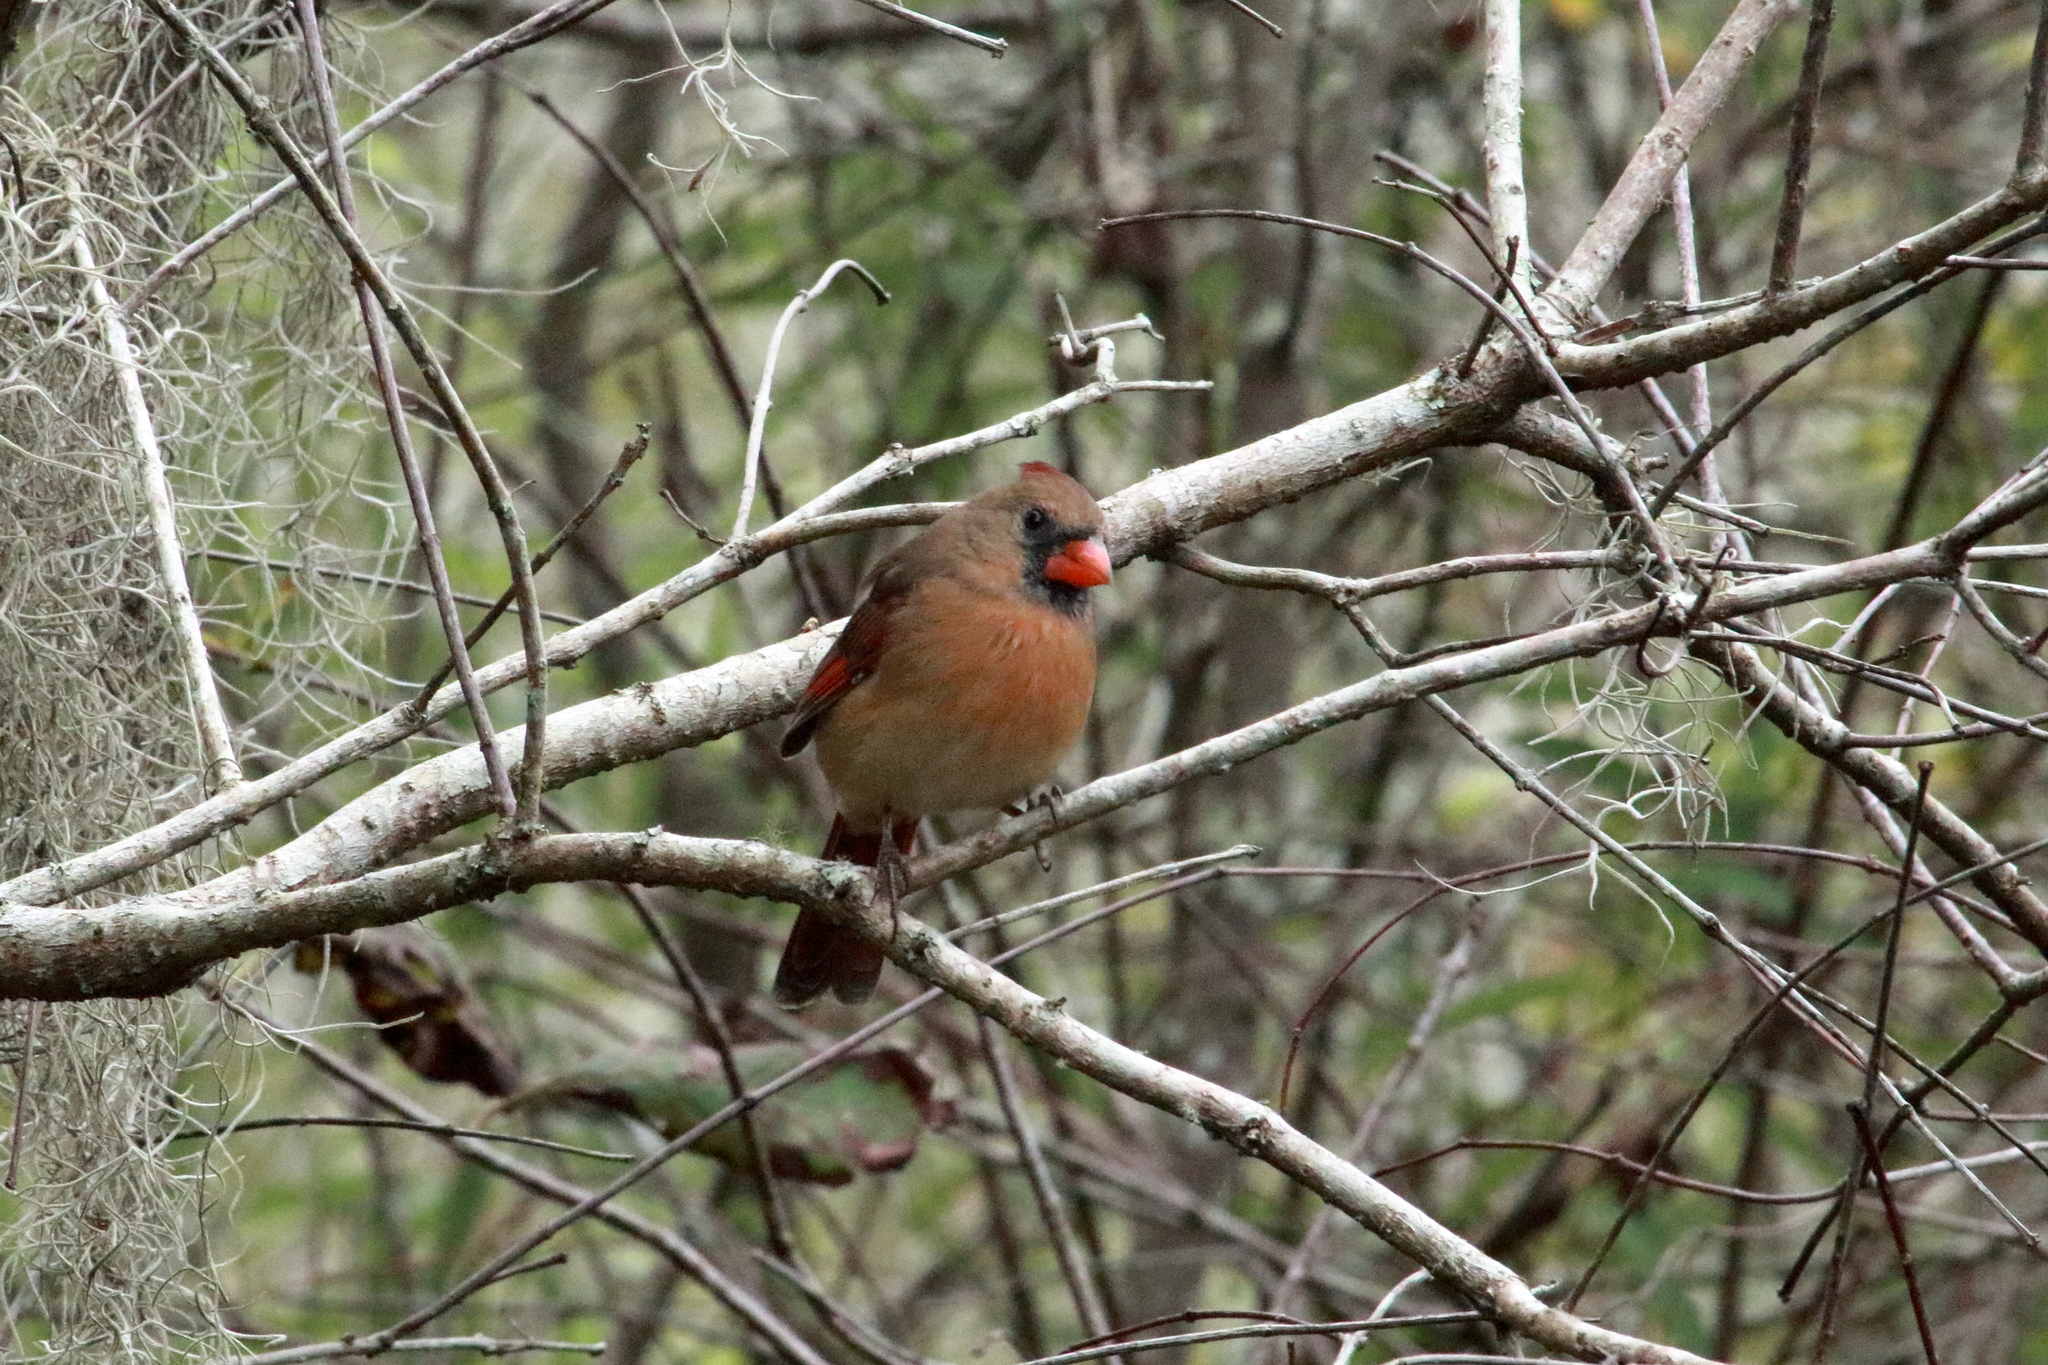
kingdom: Animalia
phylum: Chordata
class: Aves
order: Passeriformes
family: Cardinalidae
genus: Cardinalis
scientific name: Cardinalis cardinalis
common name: Northern cardinal
